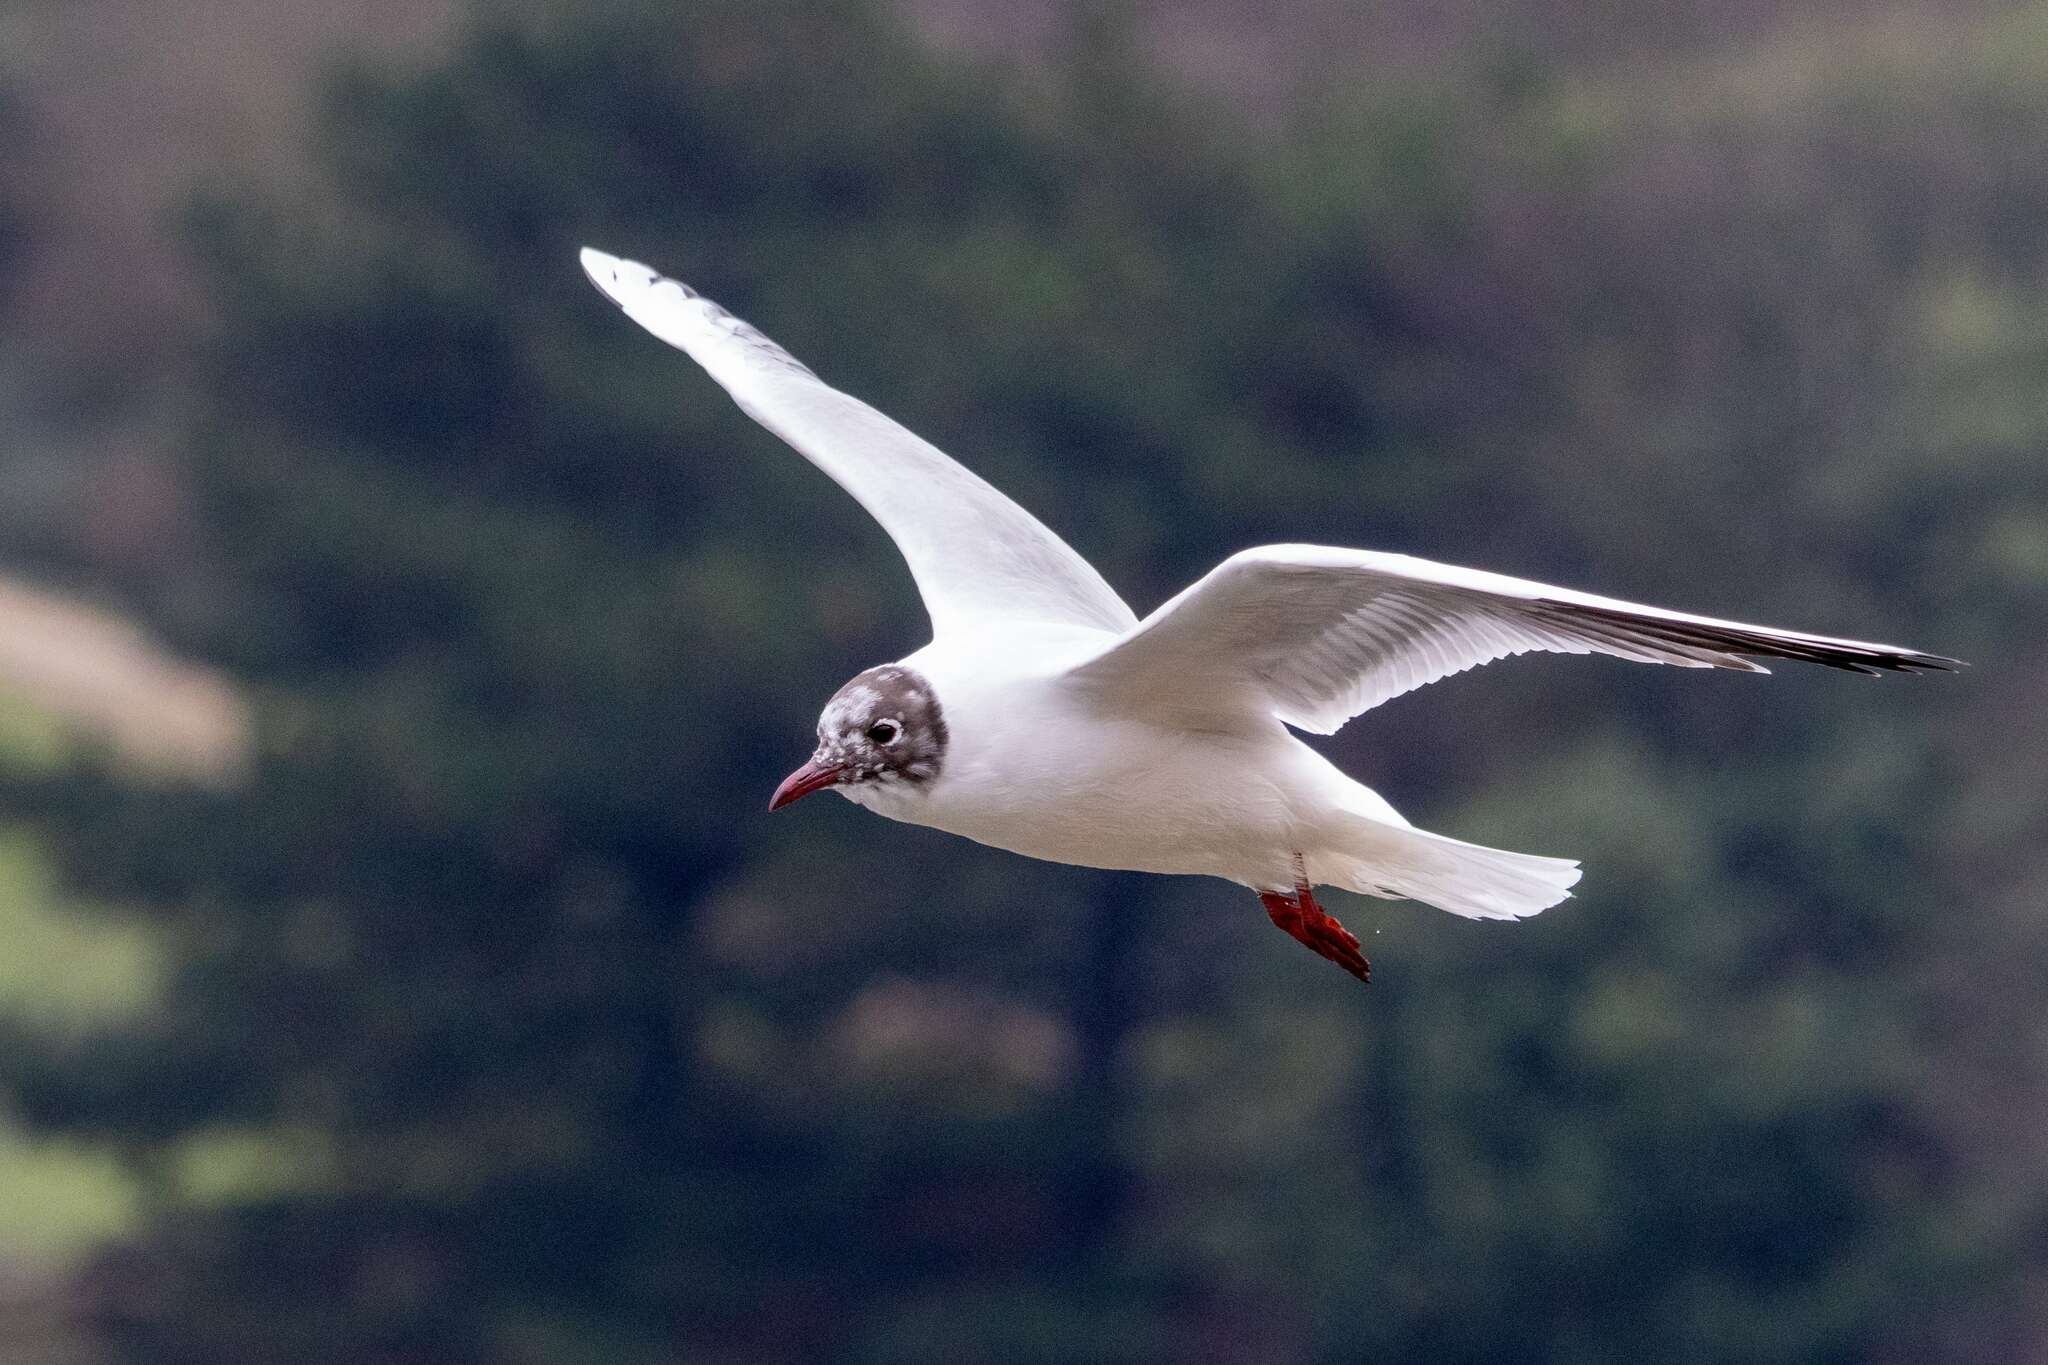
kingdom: Animalia
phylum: Chordata
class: Aves
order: Charadriiformes
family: Laridae
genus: Chroicocephalus
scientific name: Chroicocephalus ridibundus
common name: Black-headed gull
